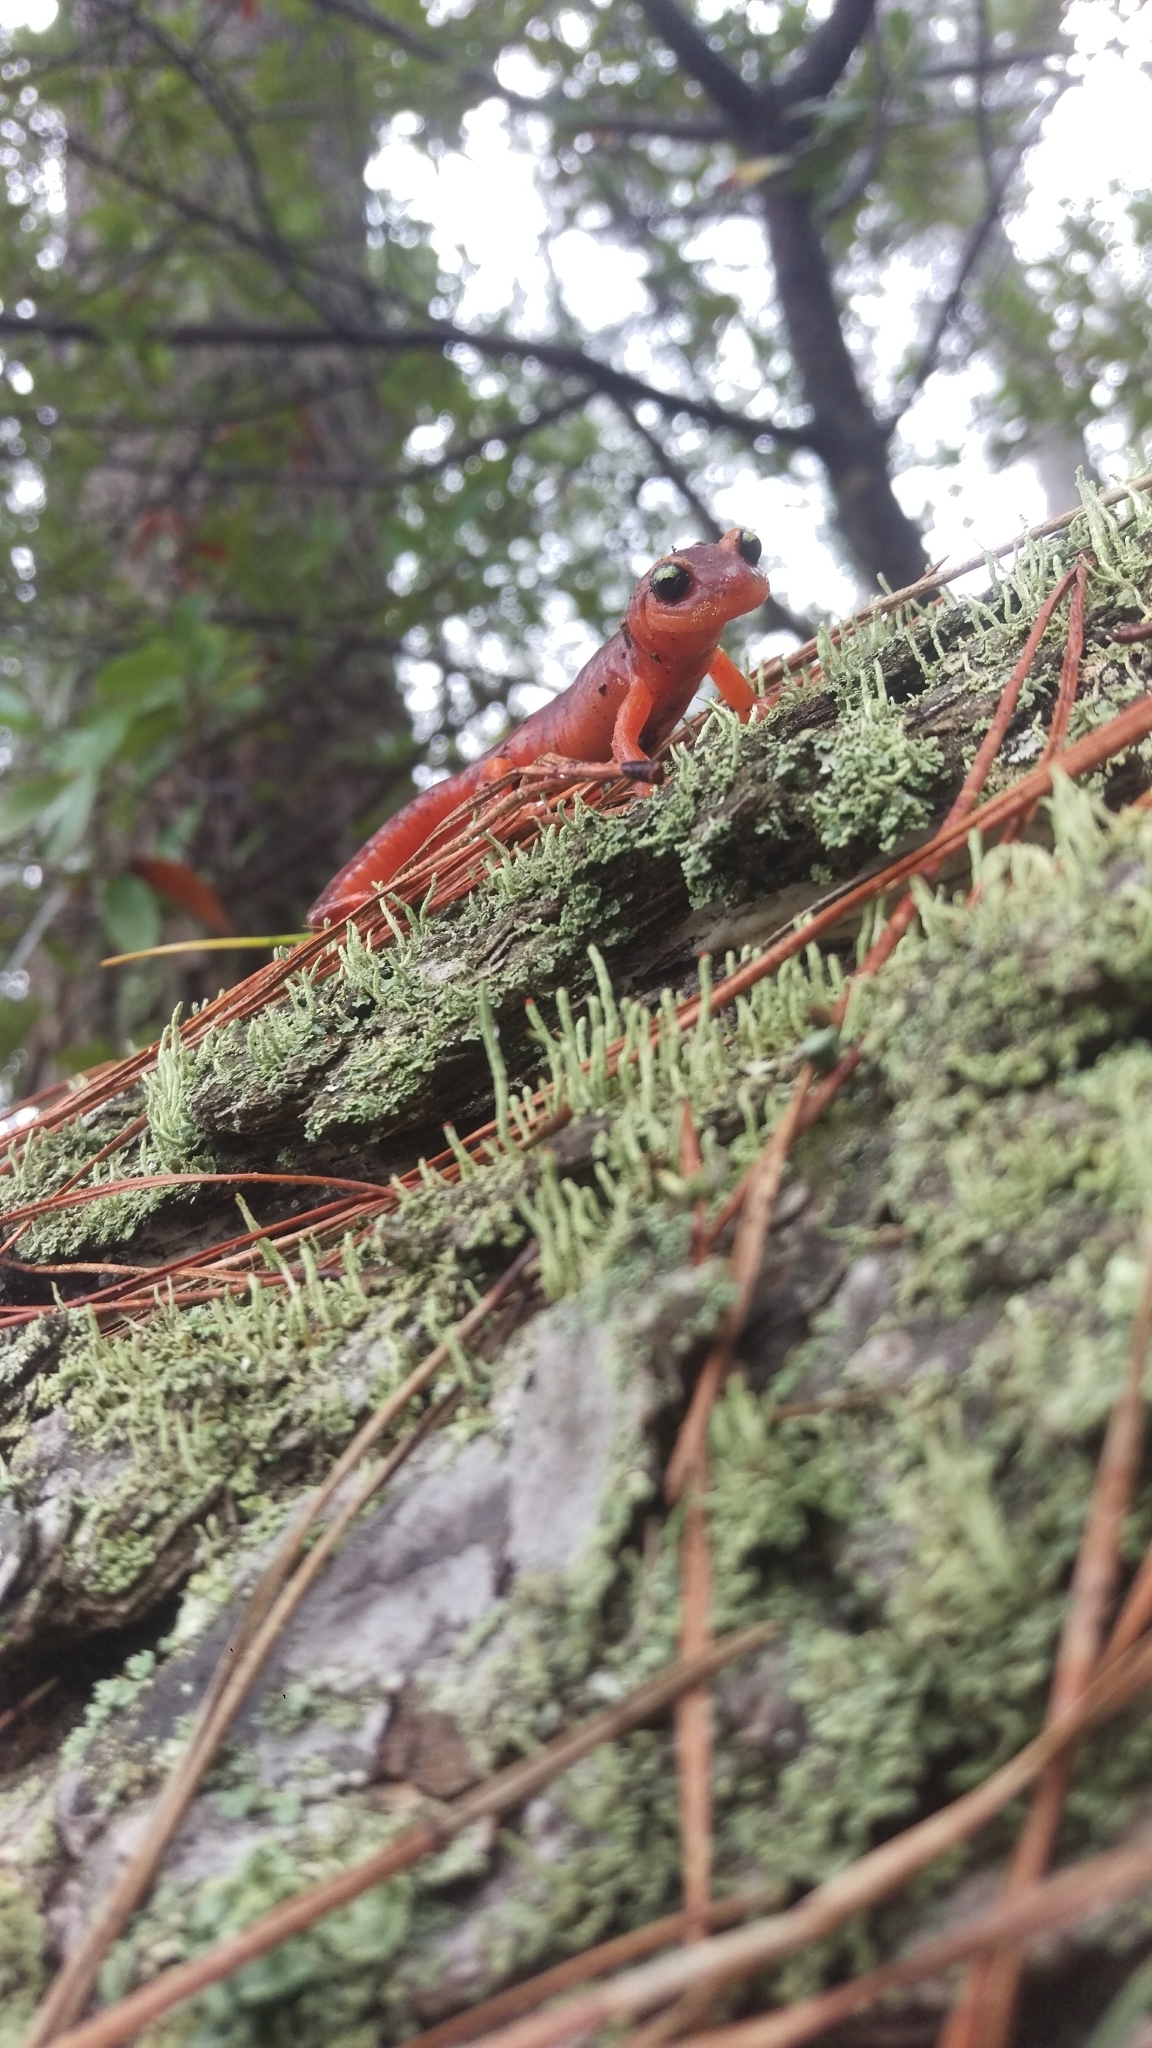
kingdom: Animalia
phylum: Chordata
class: Amphibia
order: Caudata
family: Plethodontidae
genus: Ensatina
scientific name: Ensatina eschscholtzii
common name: Ensatina
